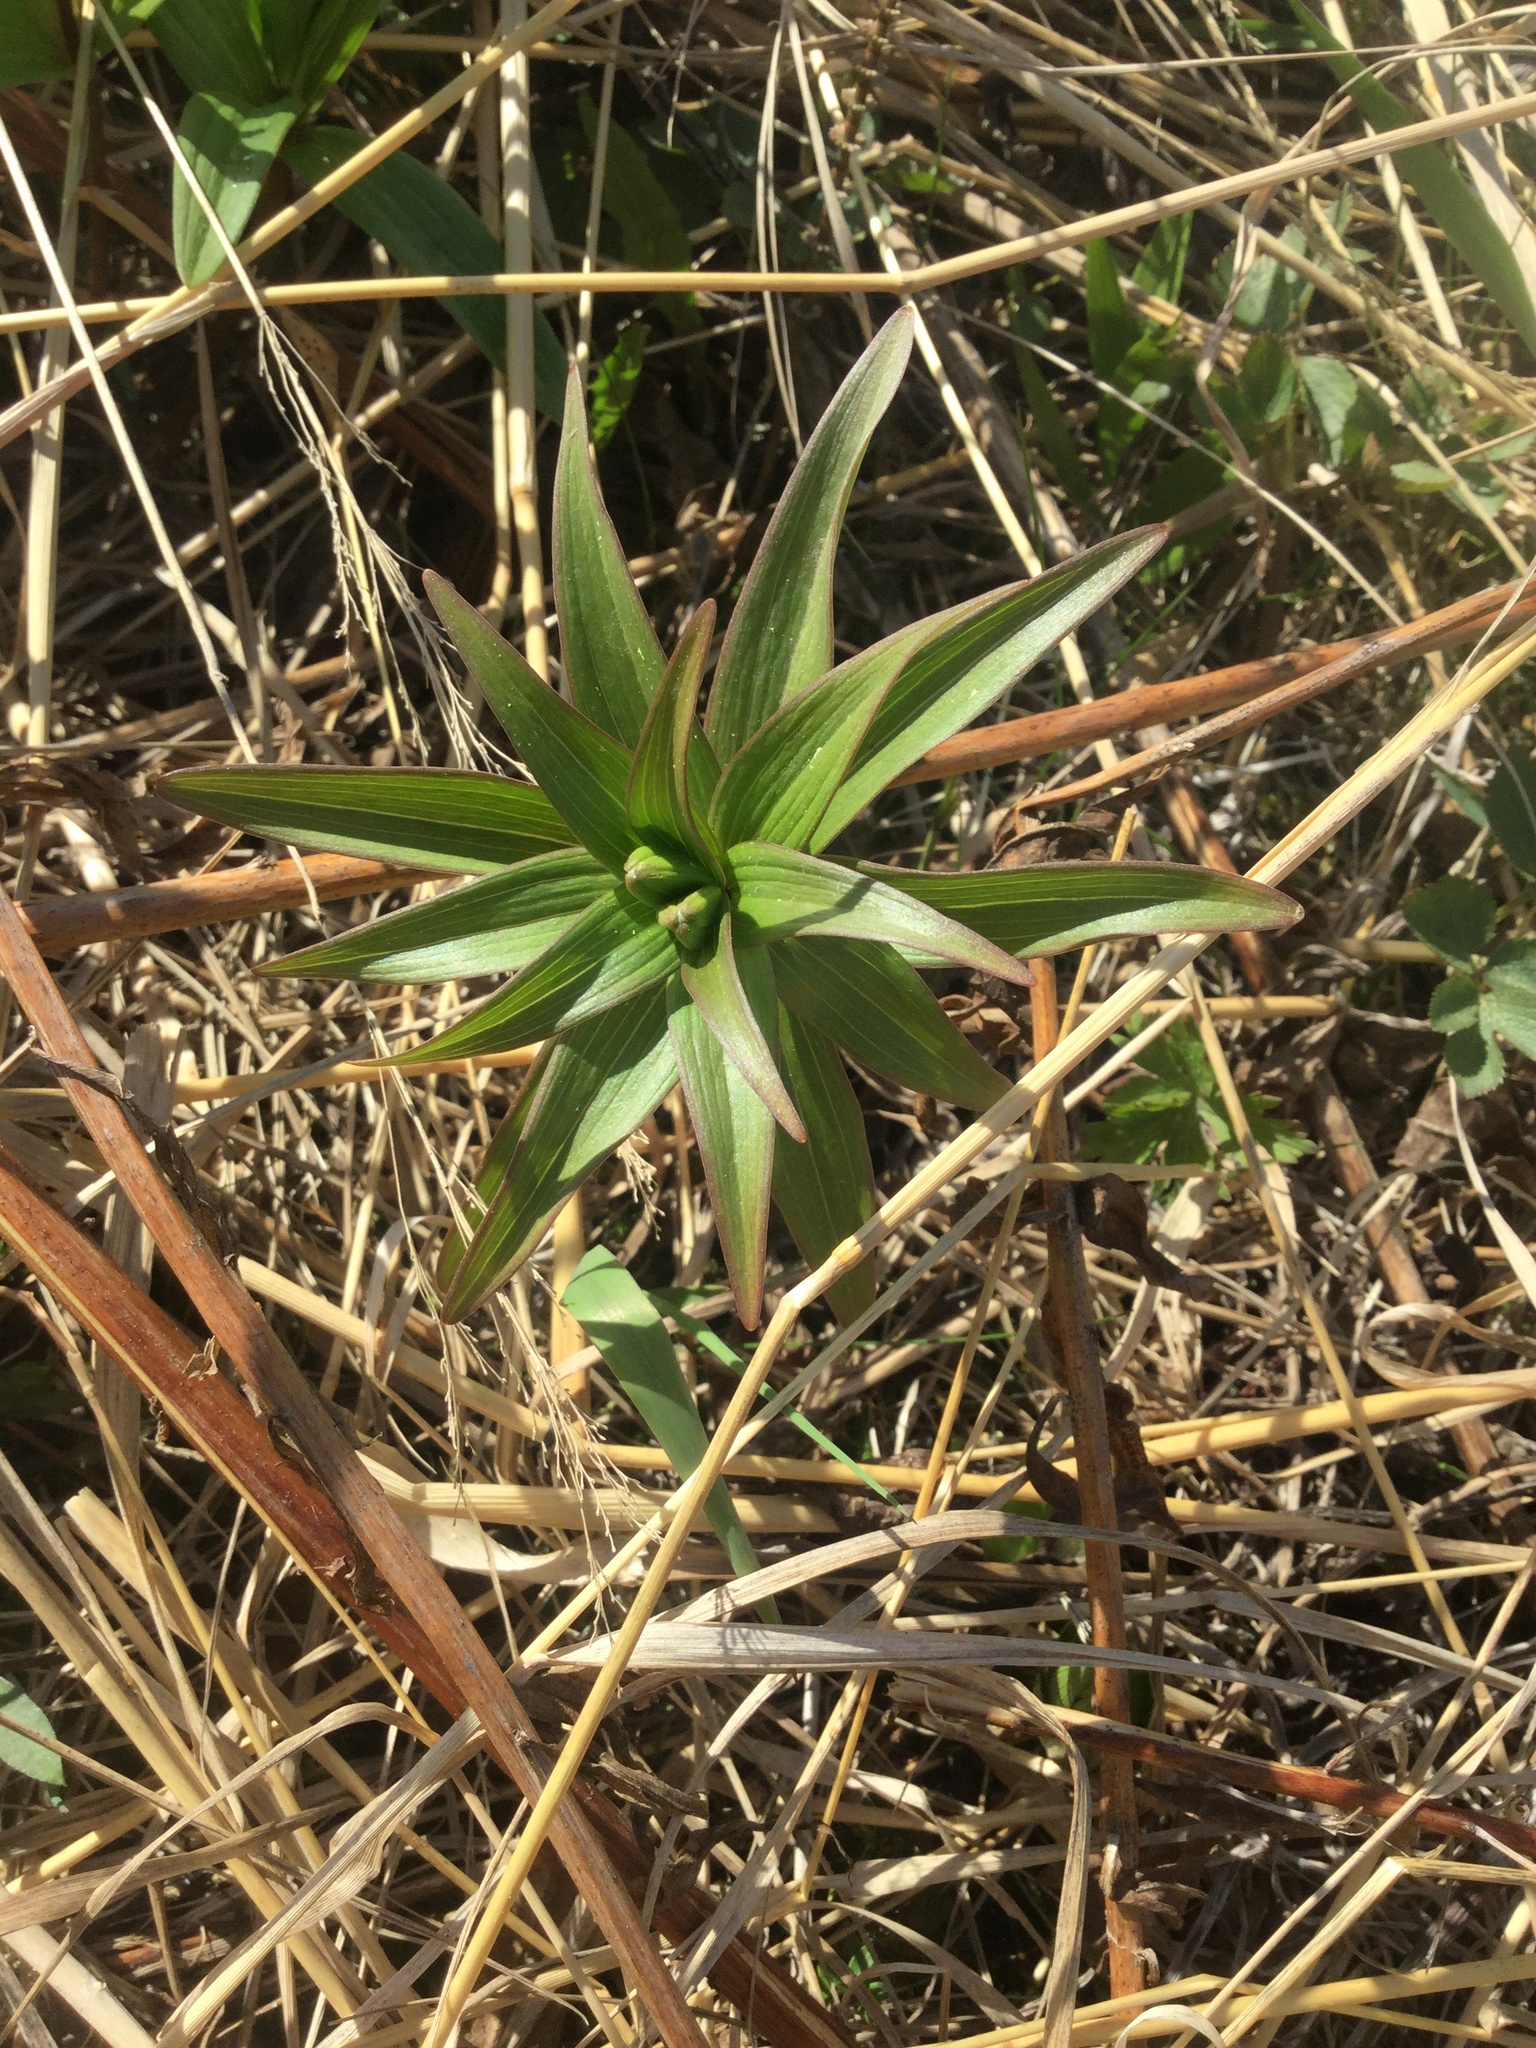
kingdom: Plantae
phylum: Tracheophyta
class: Liliopsida
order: Liliales
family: Liliaceae
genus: Fritillaria
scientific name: Fritillaria camschatcensis
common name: Kamchatka fritillary
